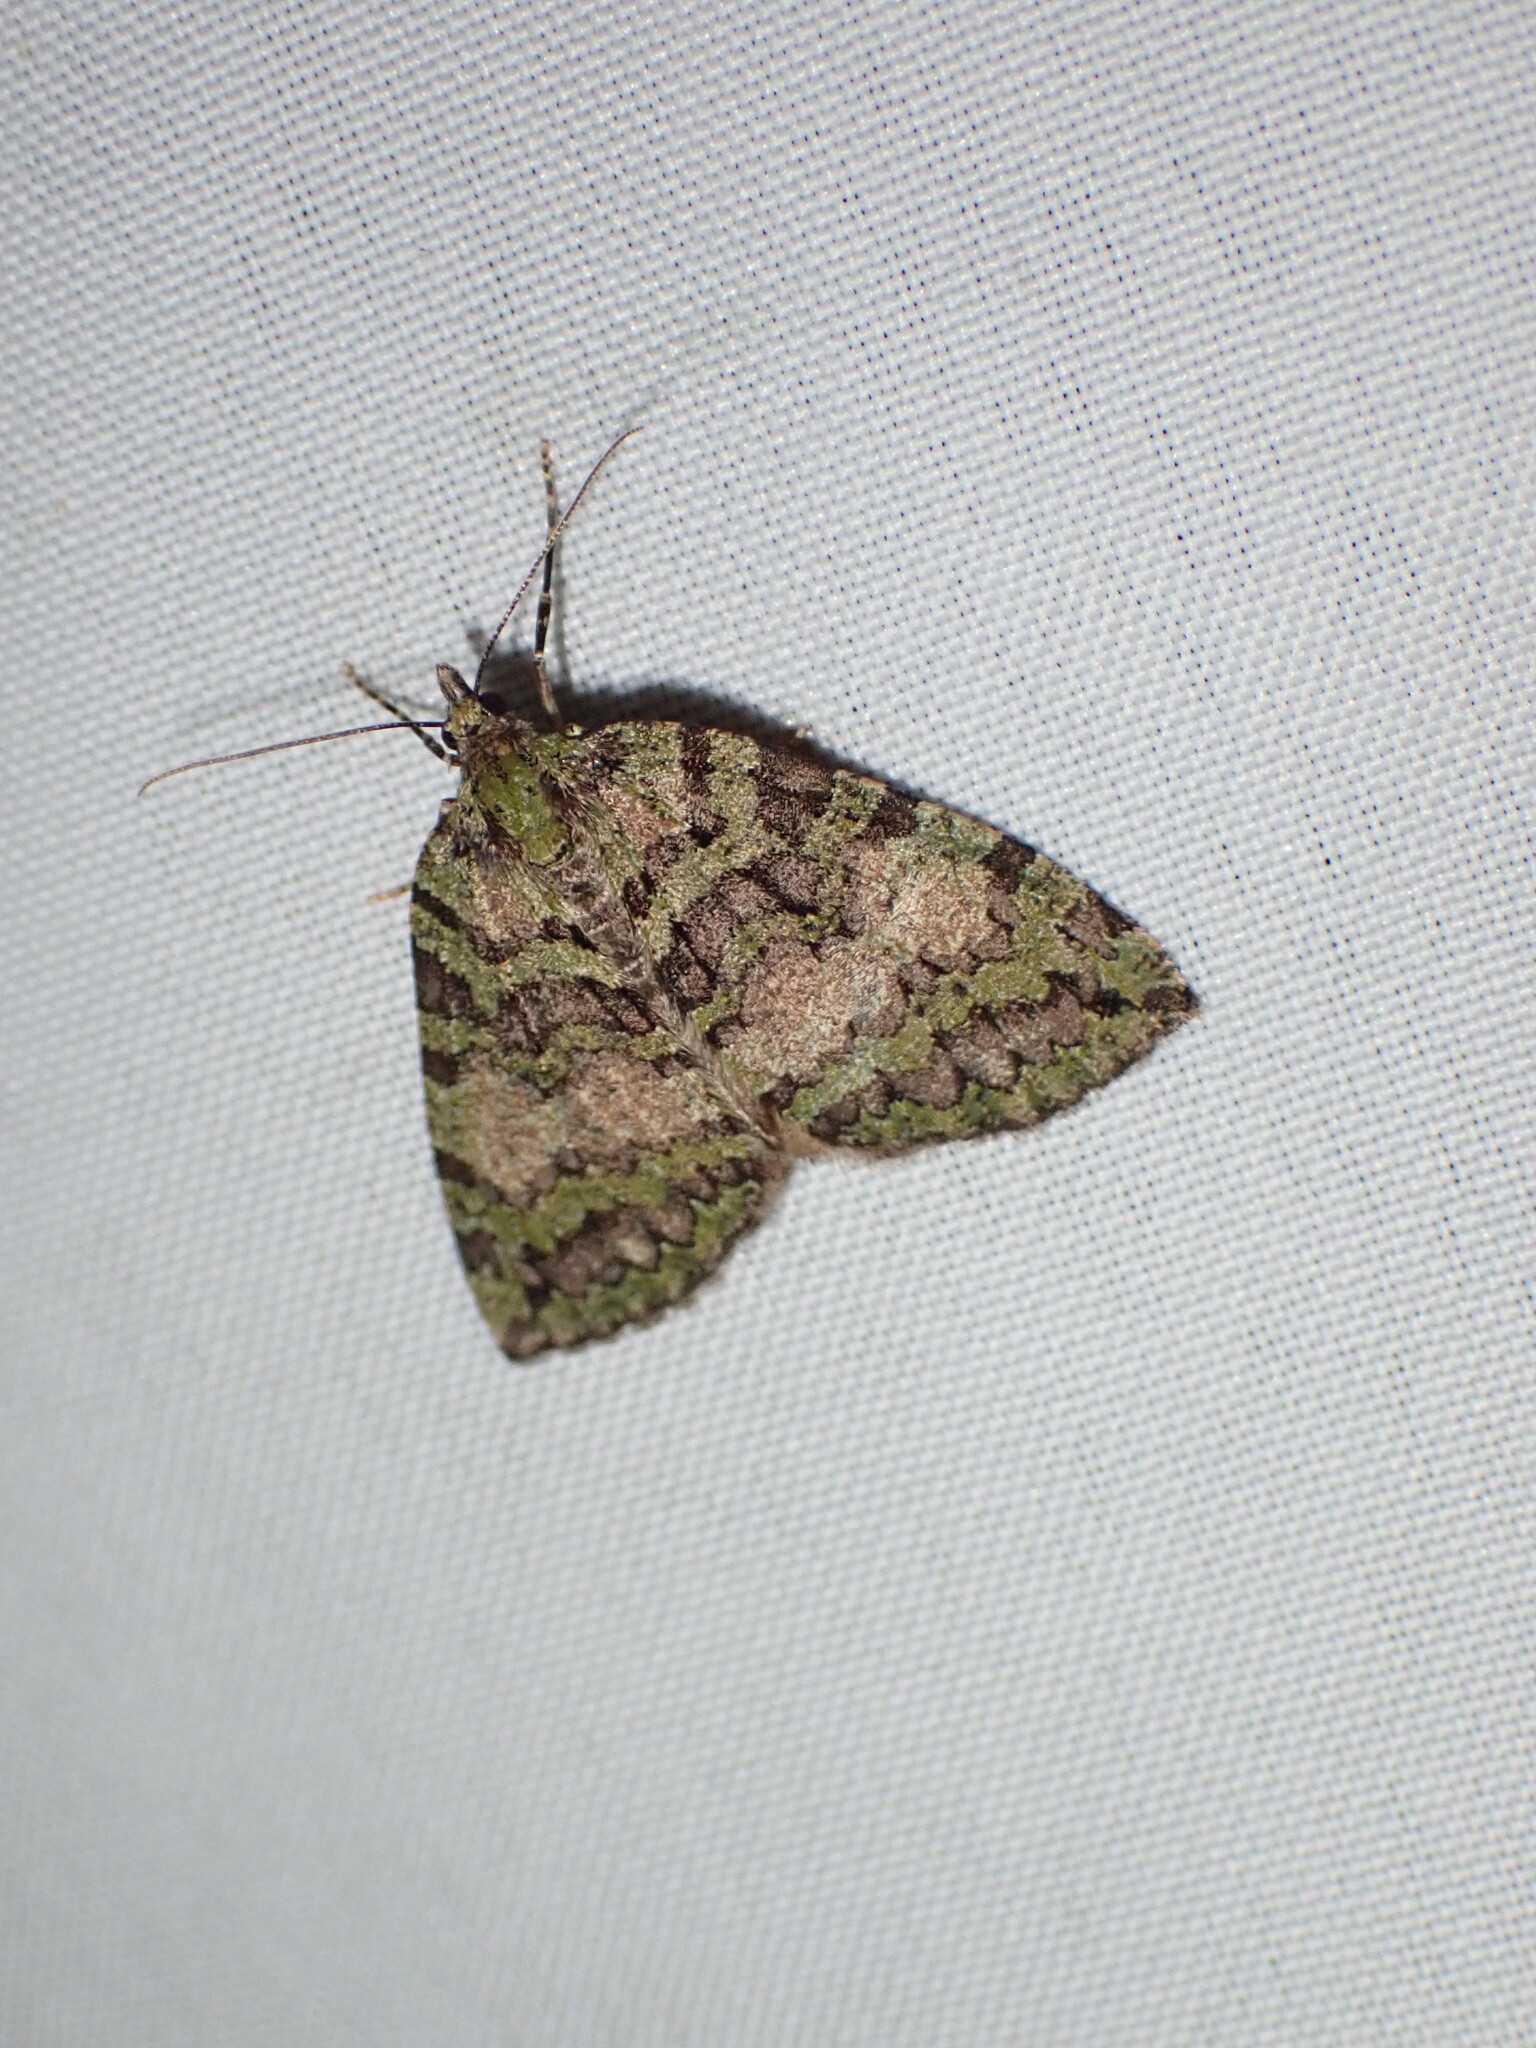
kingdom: Animalia
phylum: Arthropoda
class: Insecta
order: Lepidoptera
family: Geometridae
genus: Hydriomena
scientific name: Hydriomena speciosata
